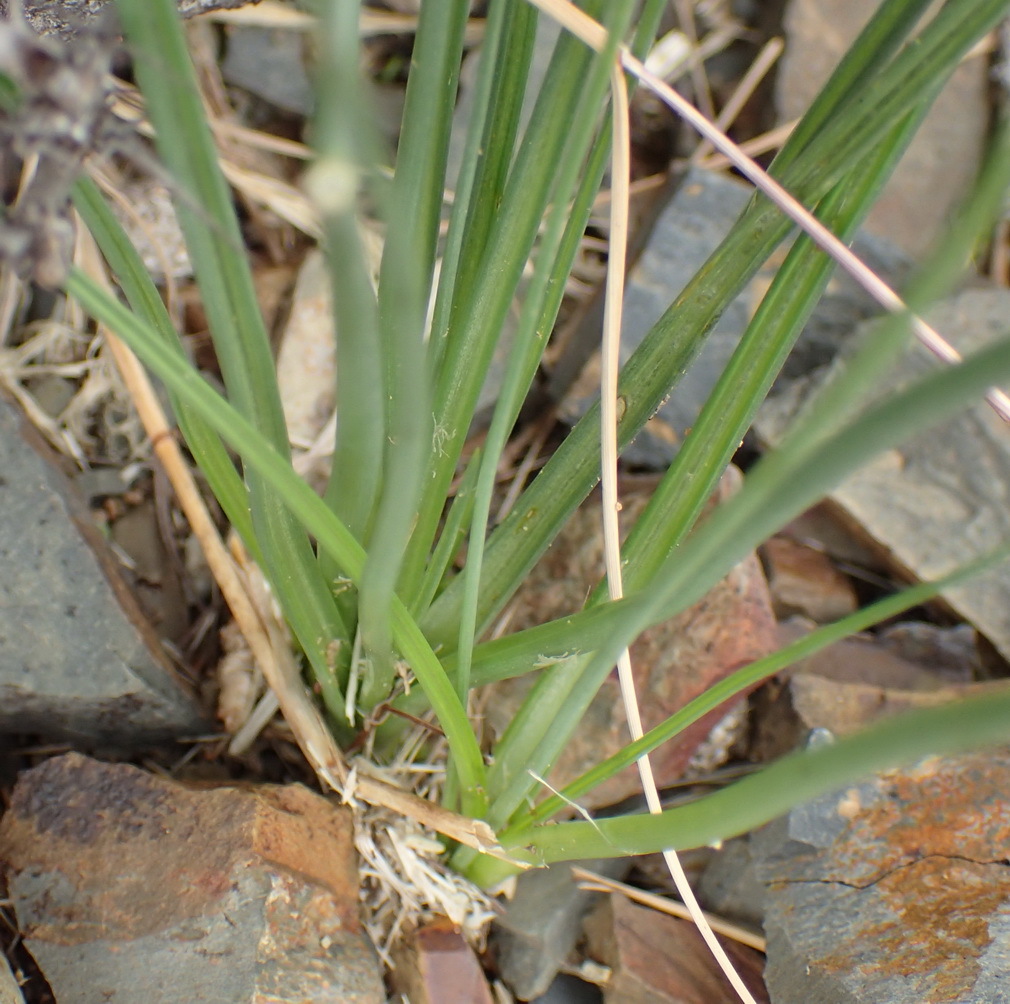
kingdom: Plantae
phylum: Tracheophyta
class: Liliopsida
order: Asparagales
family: Asparagaceae
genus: Albuca
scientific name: Albuca virens
